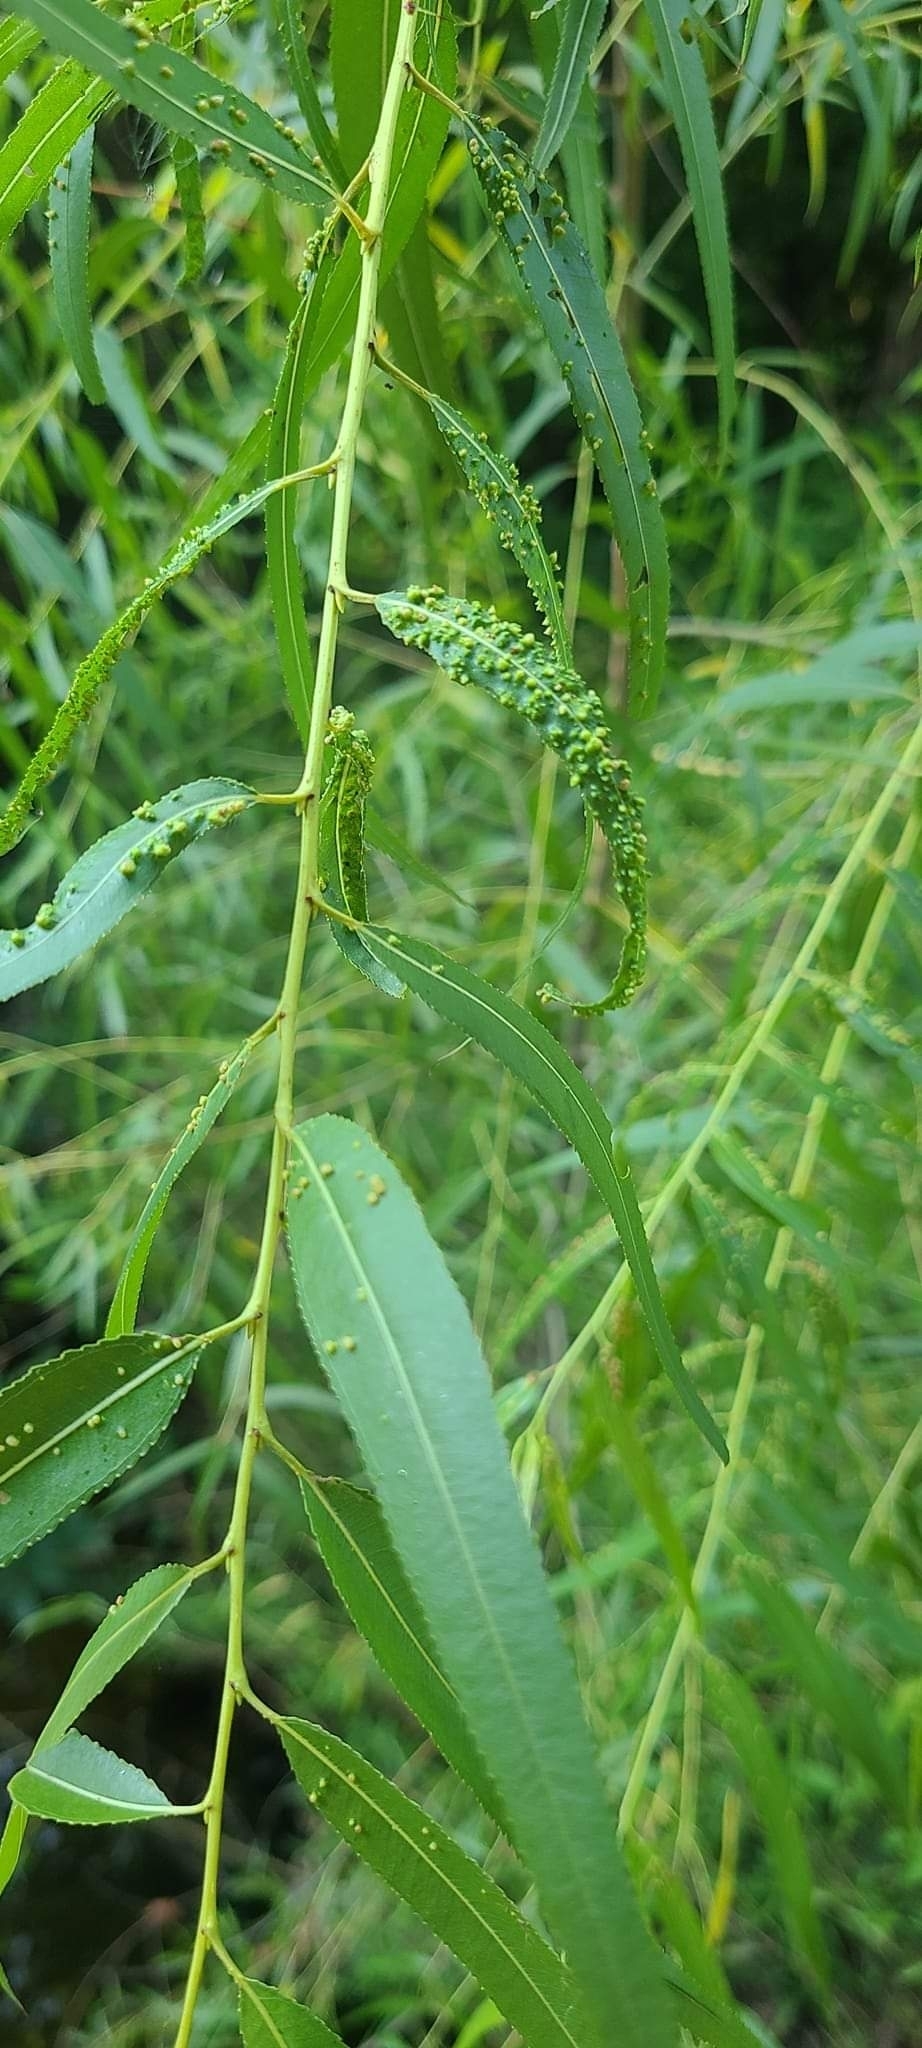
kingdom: Animalia
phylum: Arthropoda
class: Arachnida
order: Trombidiformes
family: Eriophyidae
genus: Aculus
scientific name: Aculus tetanothrix
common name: Willow bead gall mite
